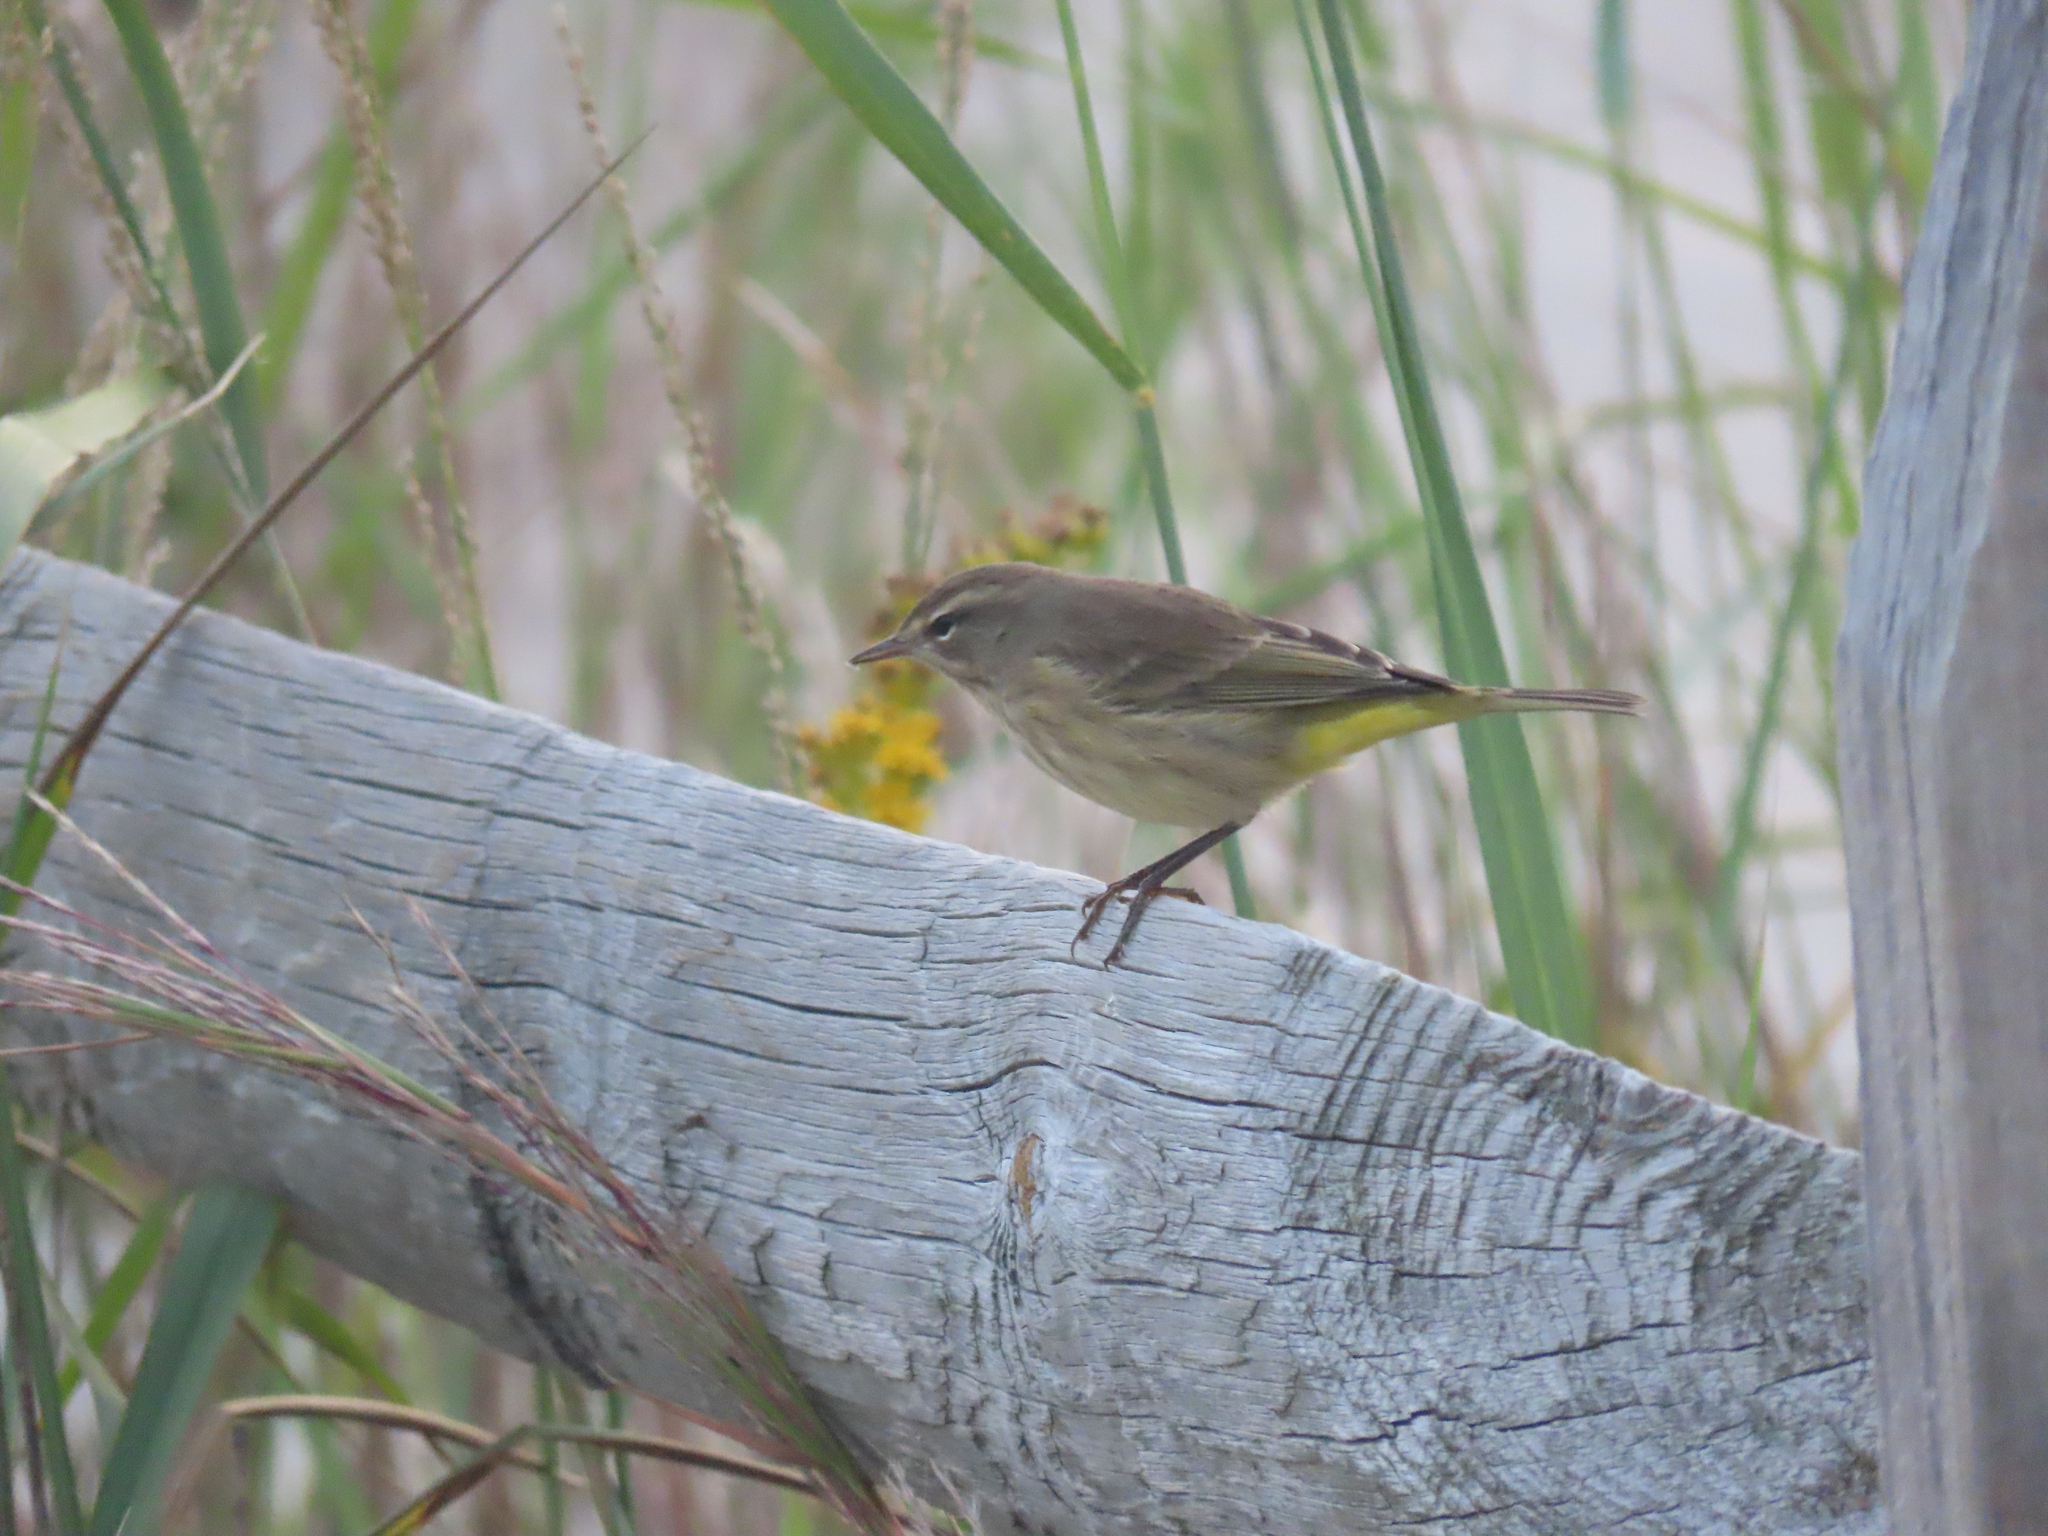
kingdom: Animalia
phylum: Chordata
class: Aves
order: Passeriformes
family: Parulidae
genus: Setophaga
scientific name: Setophaga palmarum
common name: Palm warbler
